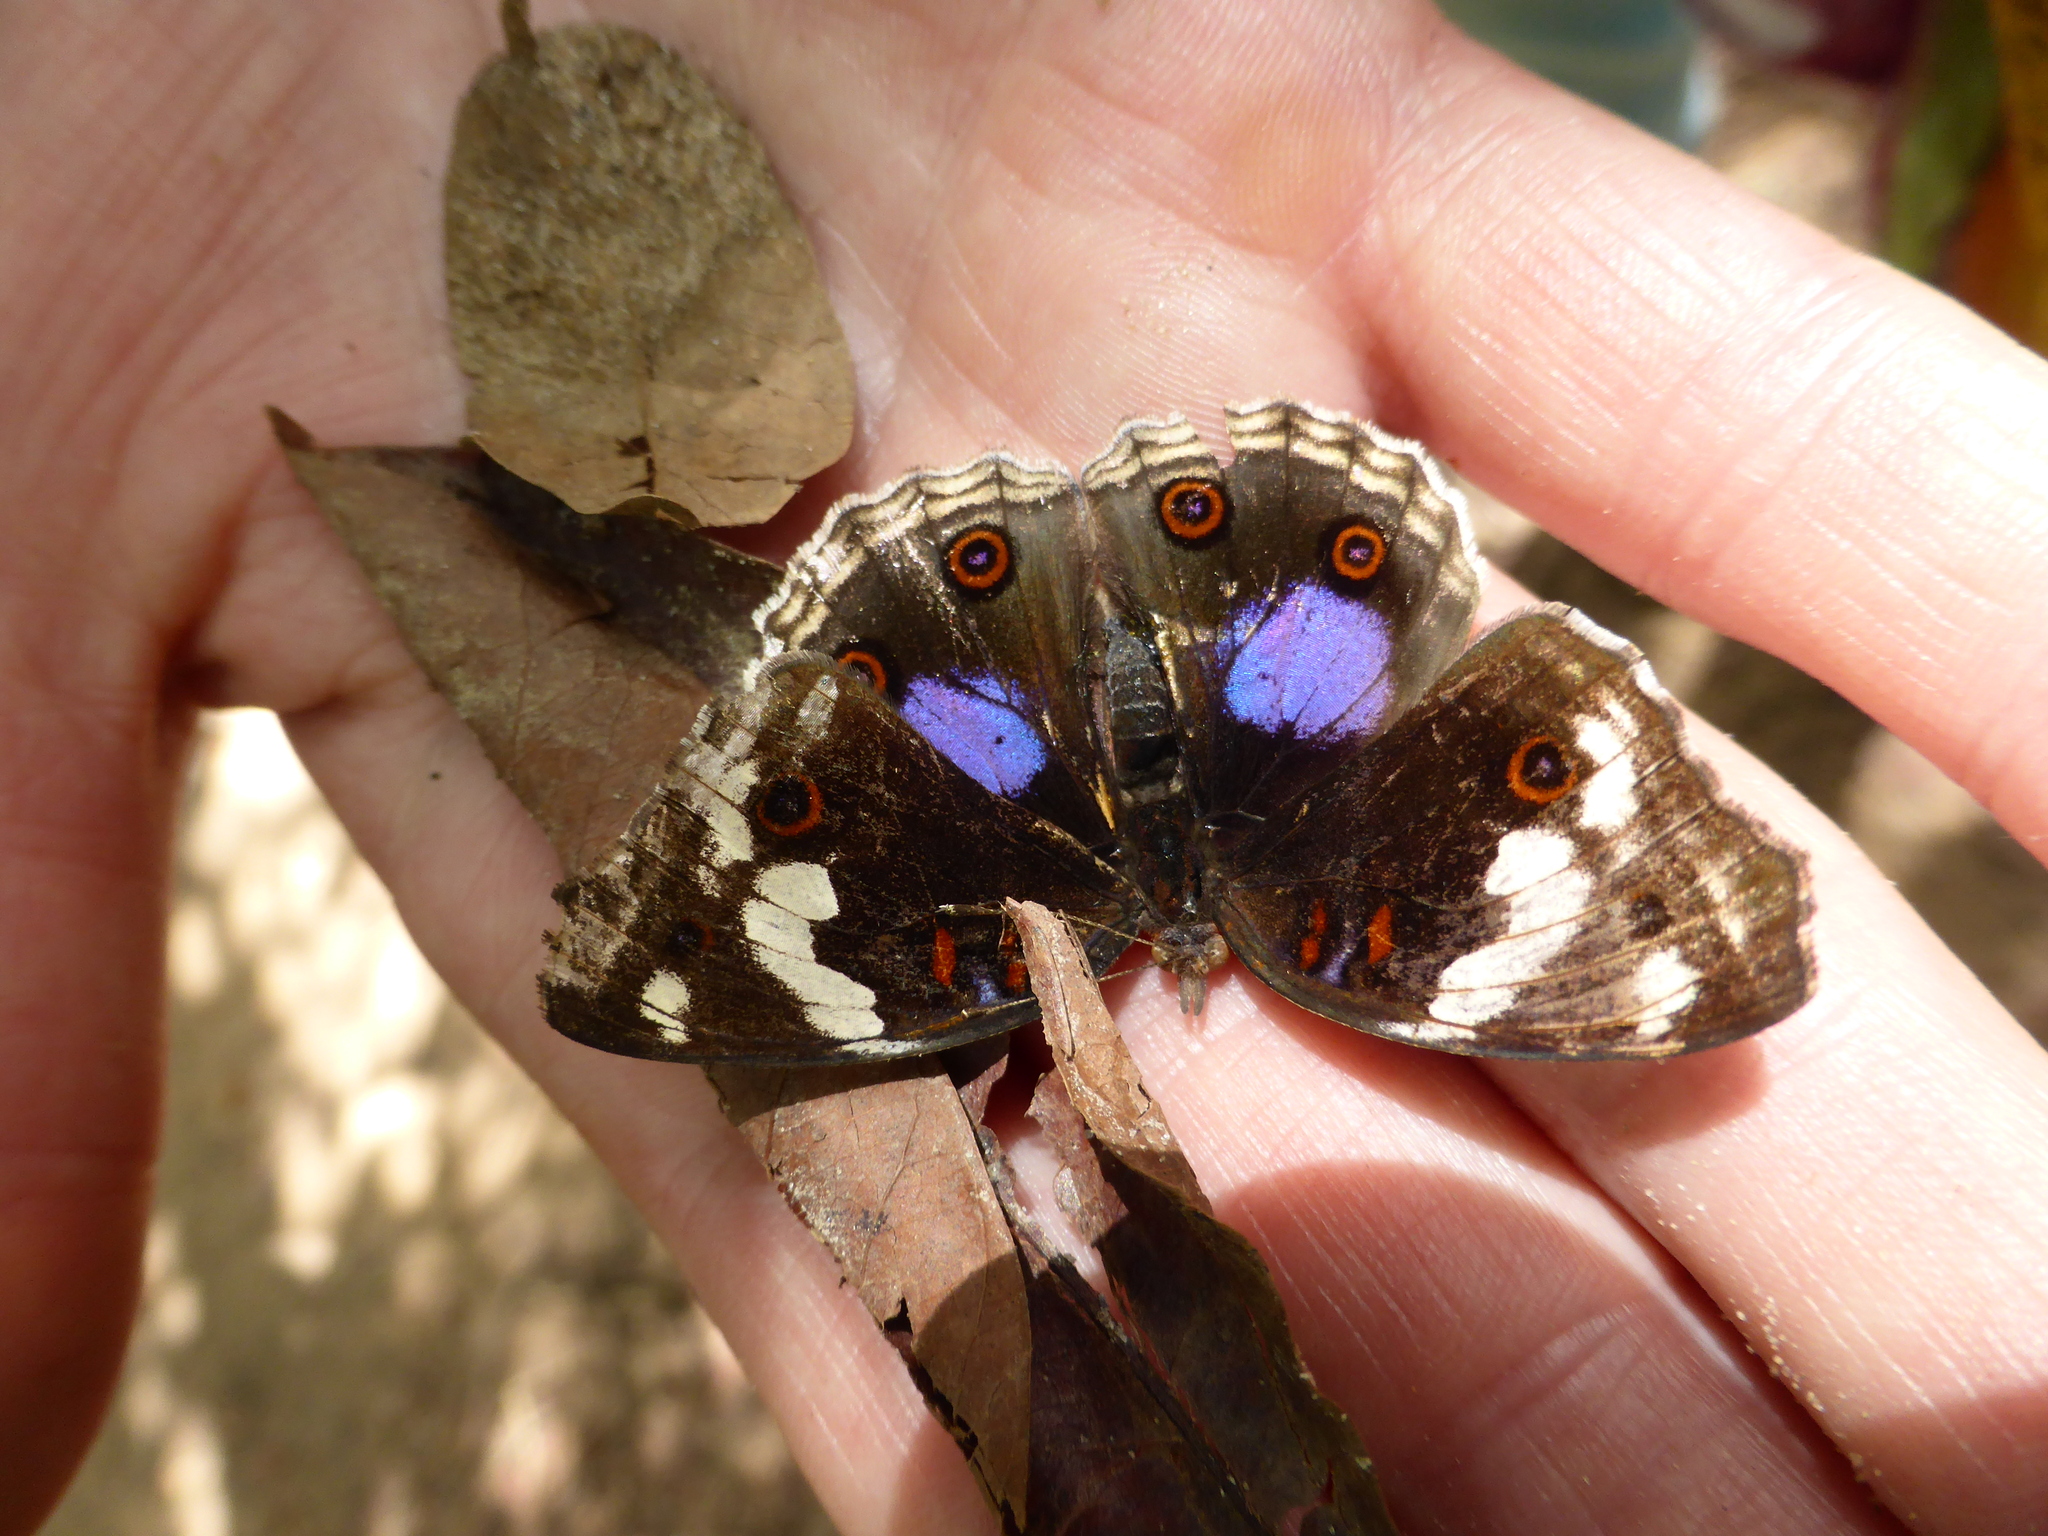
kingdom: Animalia
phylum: Arthropoda
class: Insecta
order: Lepidoptera
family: Nymphalidae
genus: Junonia
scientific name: Junonia oenone
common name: Dark blue pansy
